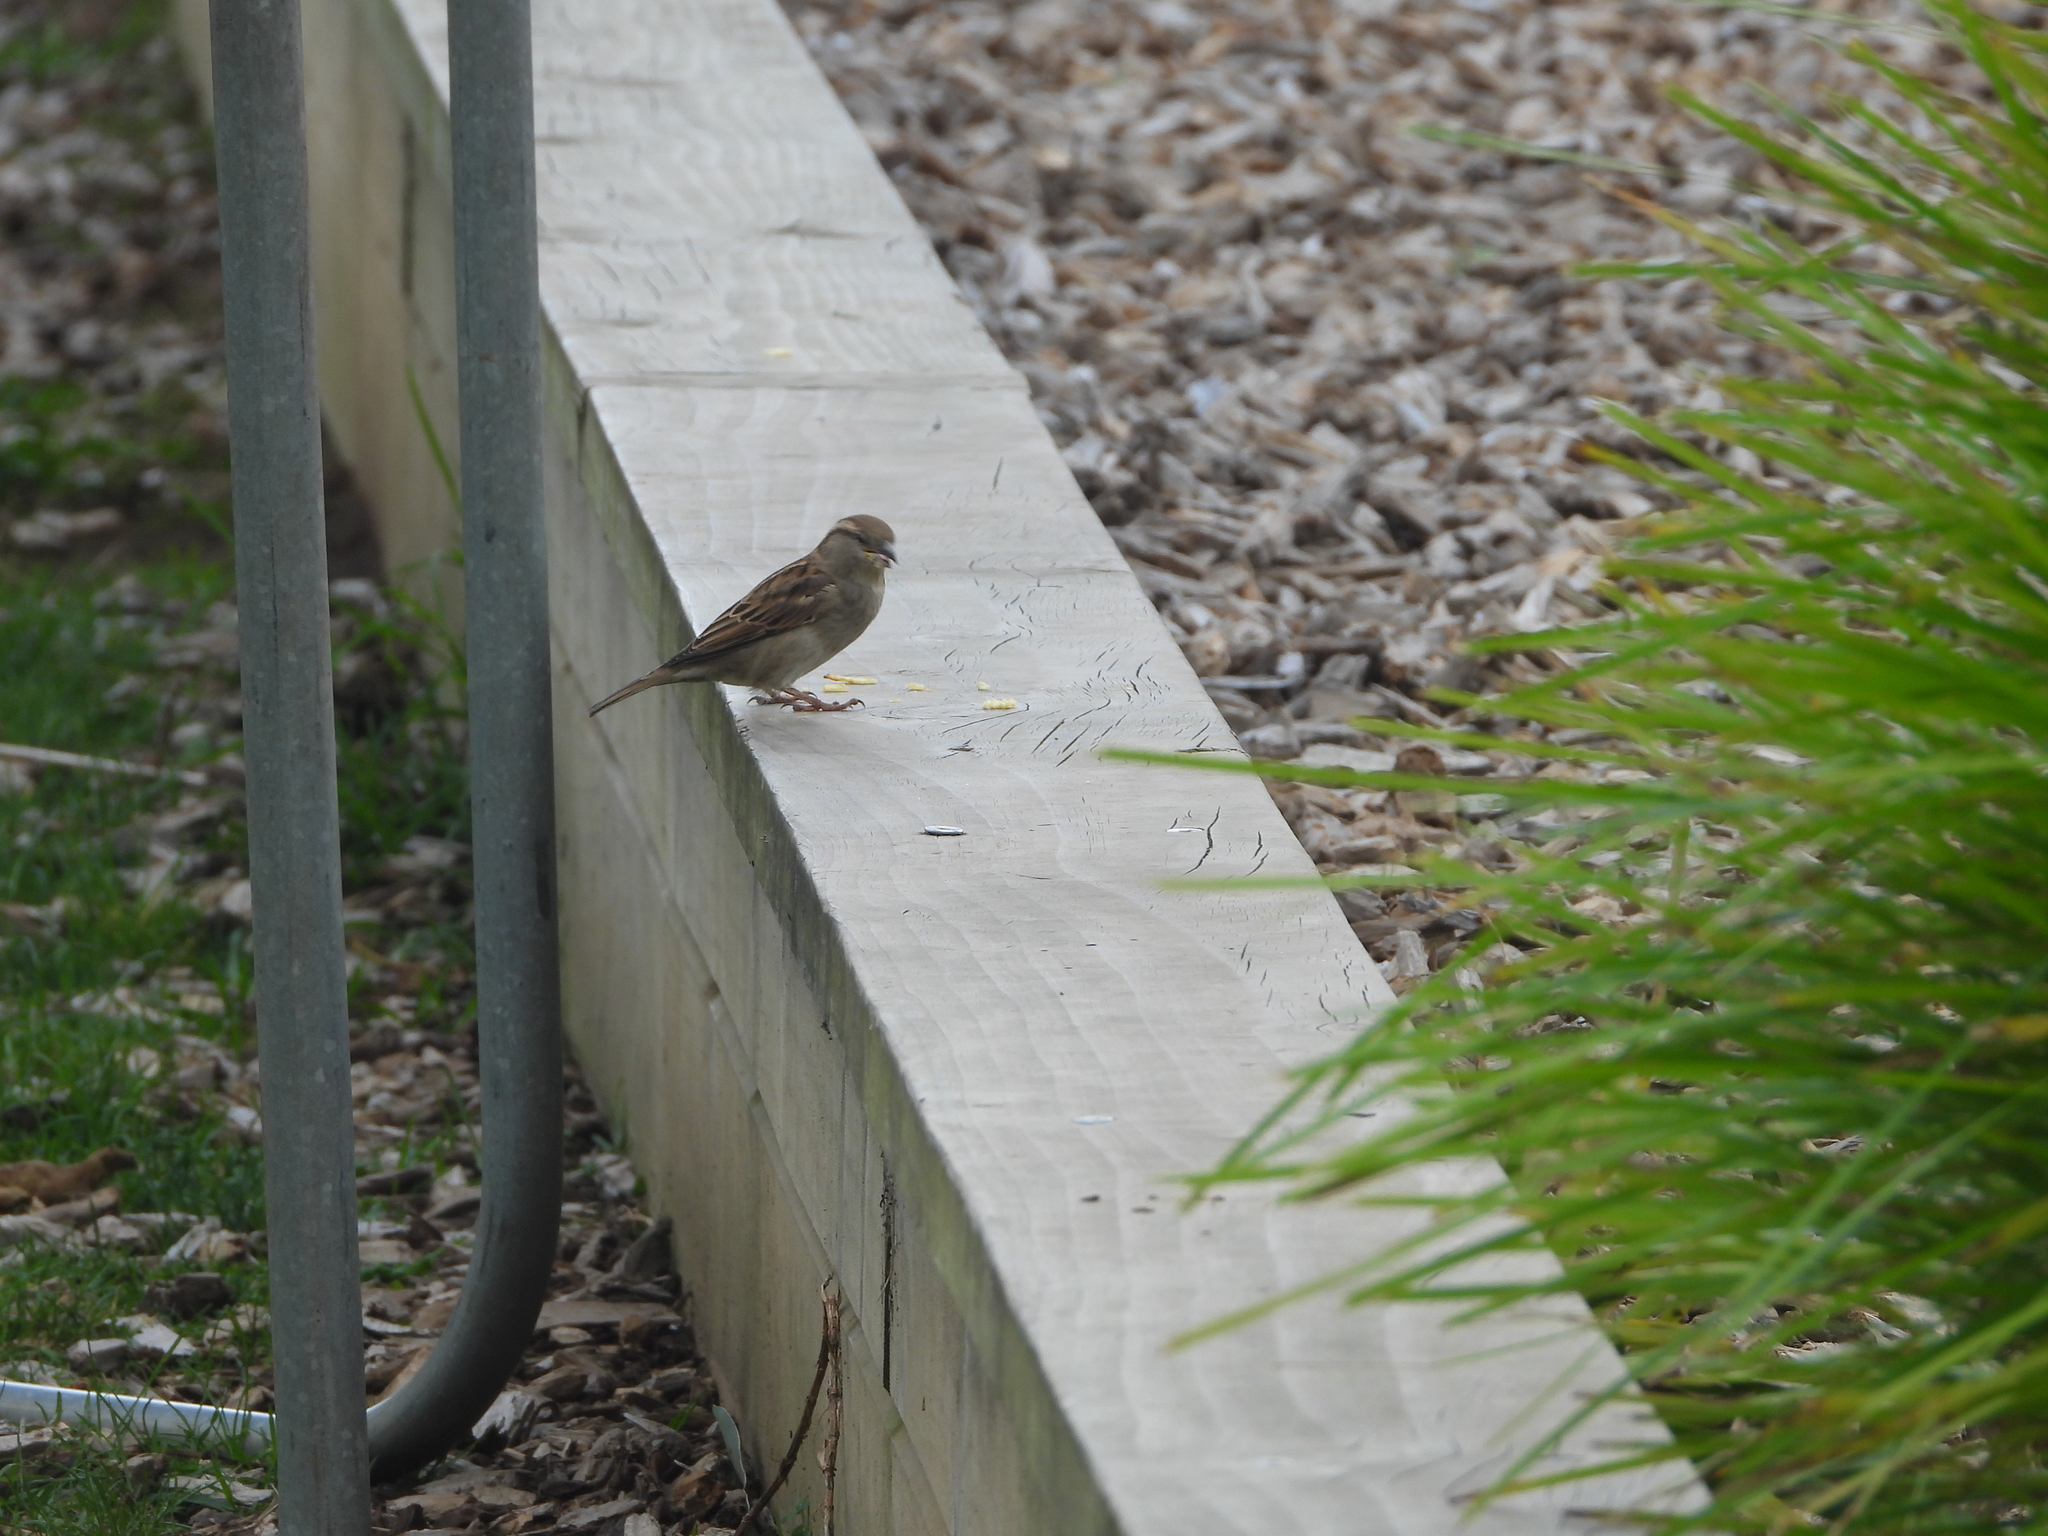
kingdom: Animalia
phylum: Chordata
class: Aves
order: Passeriformes
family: Passeridae
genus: Passer
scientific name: Passer domesticus
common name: House sparrow
